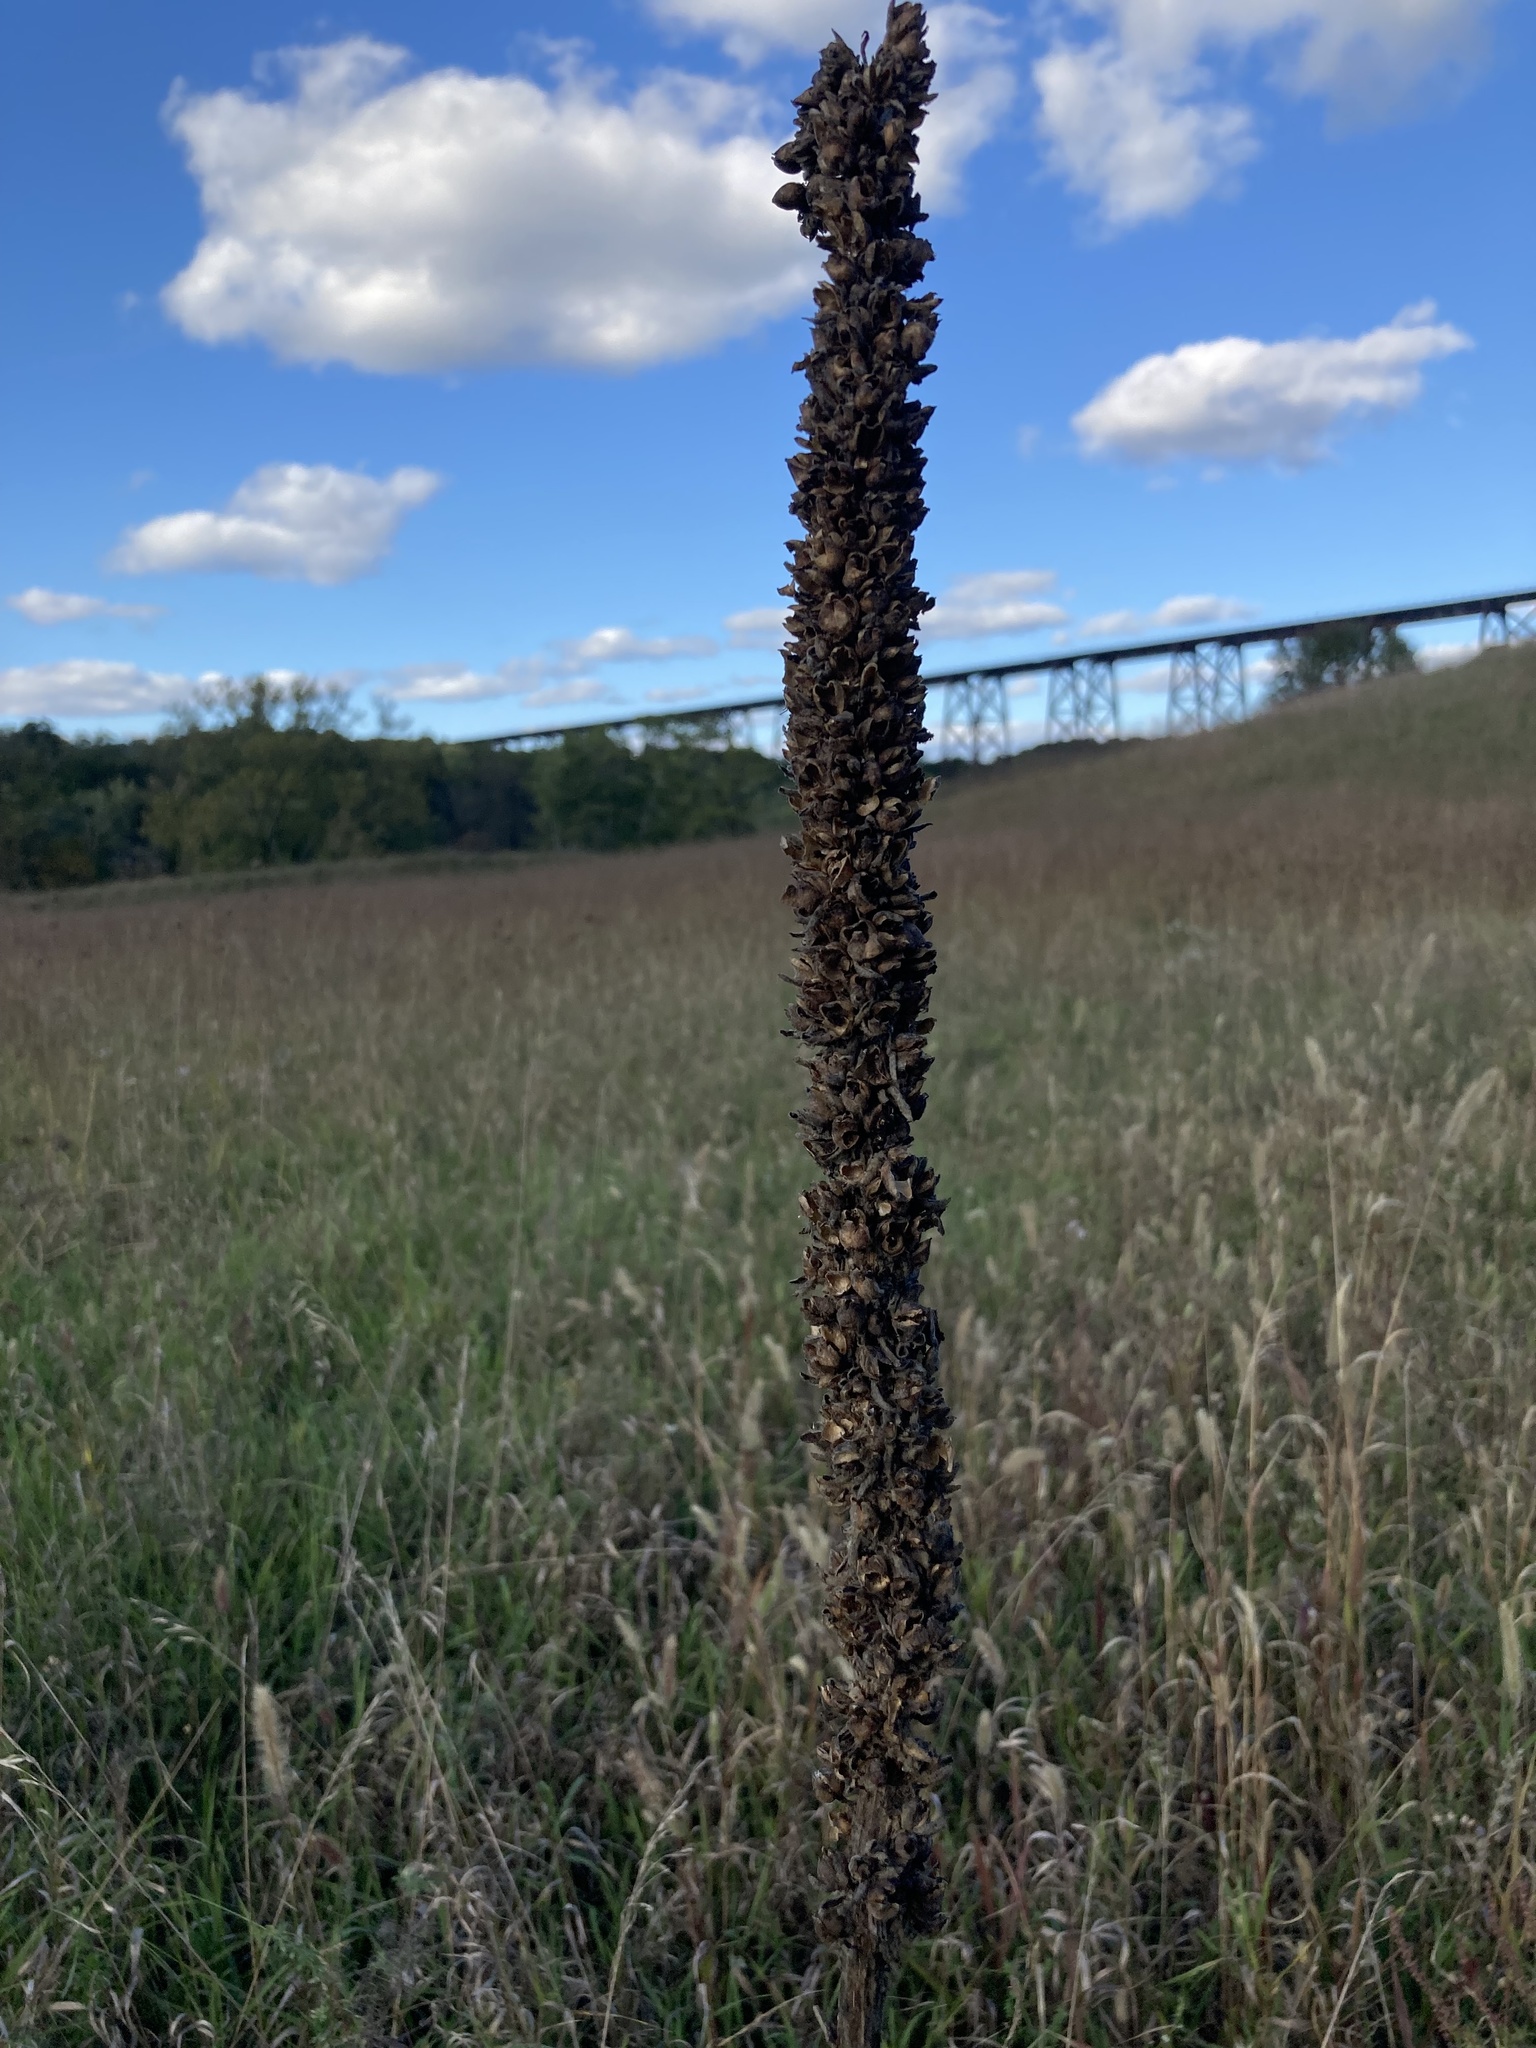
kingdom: Plantae
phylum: Tracheophyta
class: Magnoliopsida
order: Lamiales
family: Scrophulariaceae
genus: Verbascum
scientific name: Verbascum thapsus
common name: Common mullein
